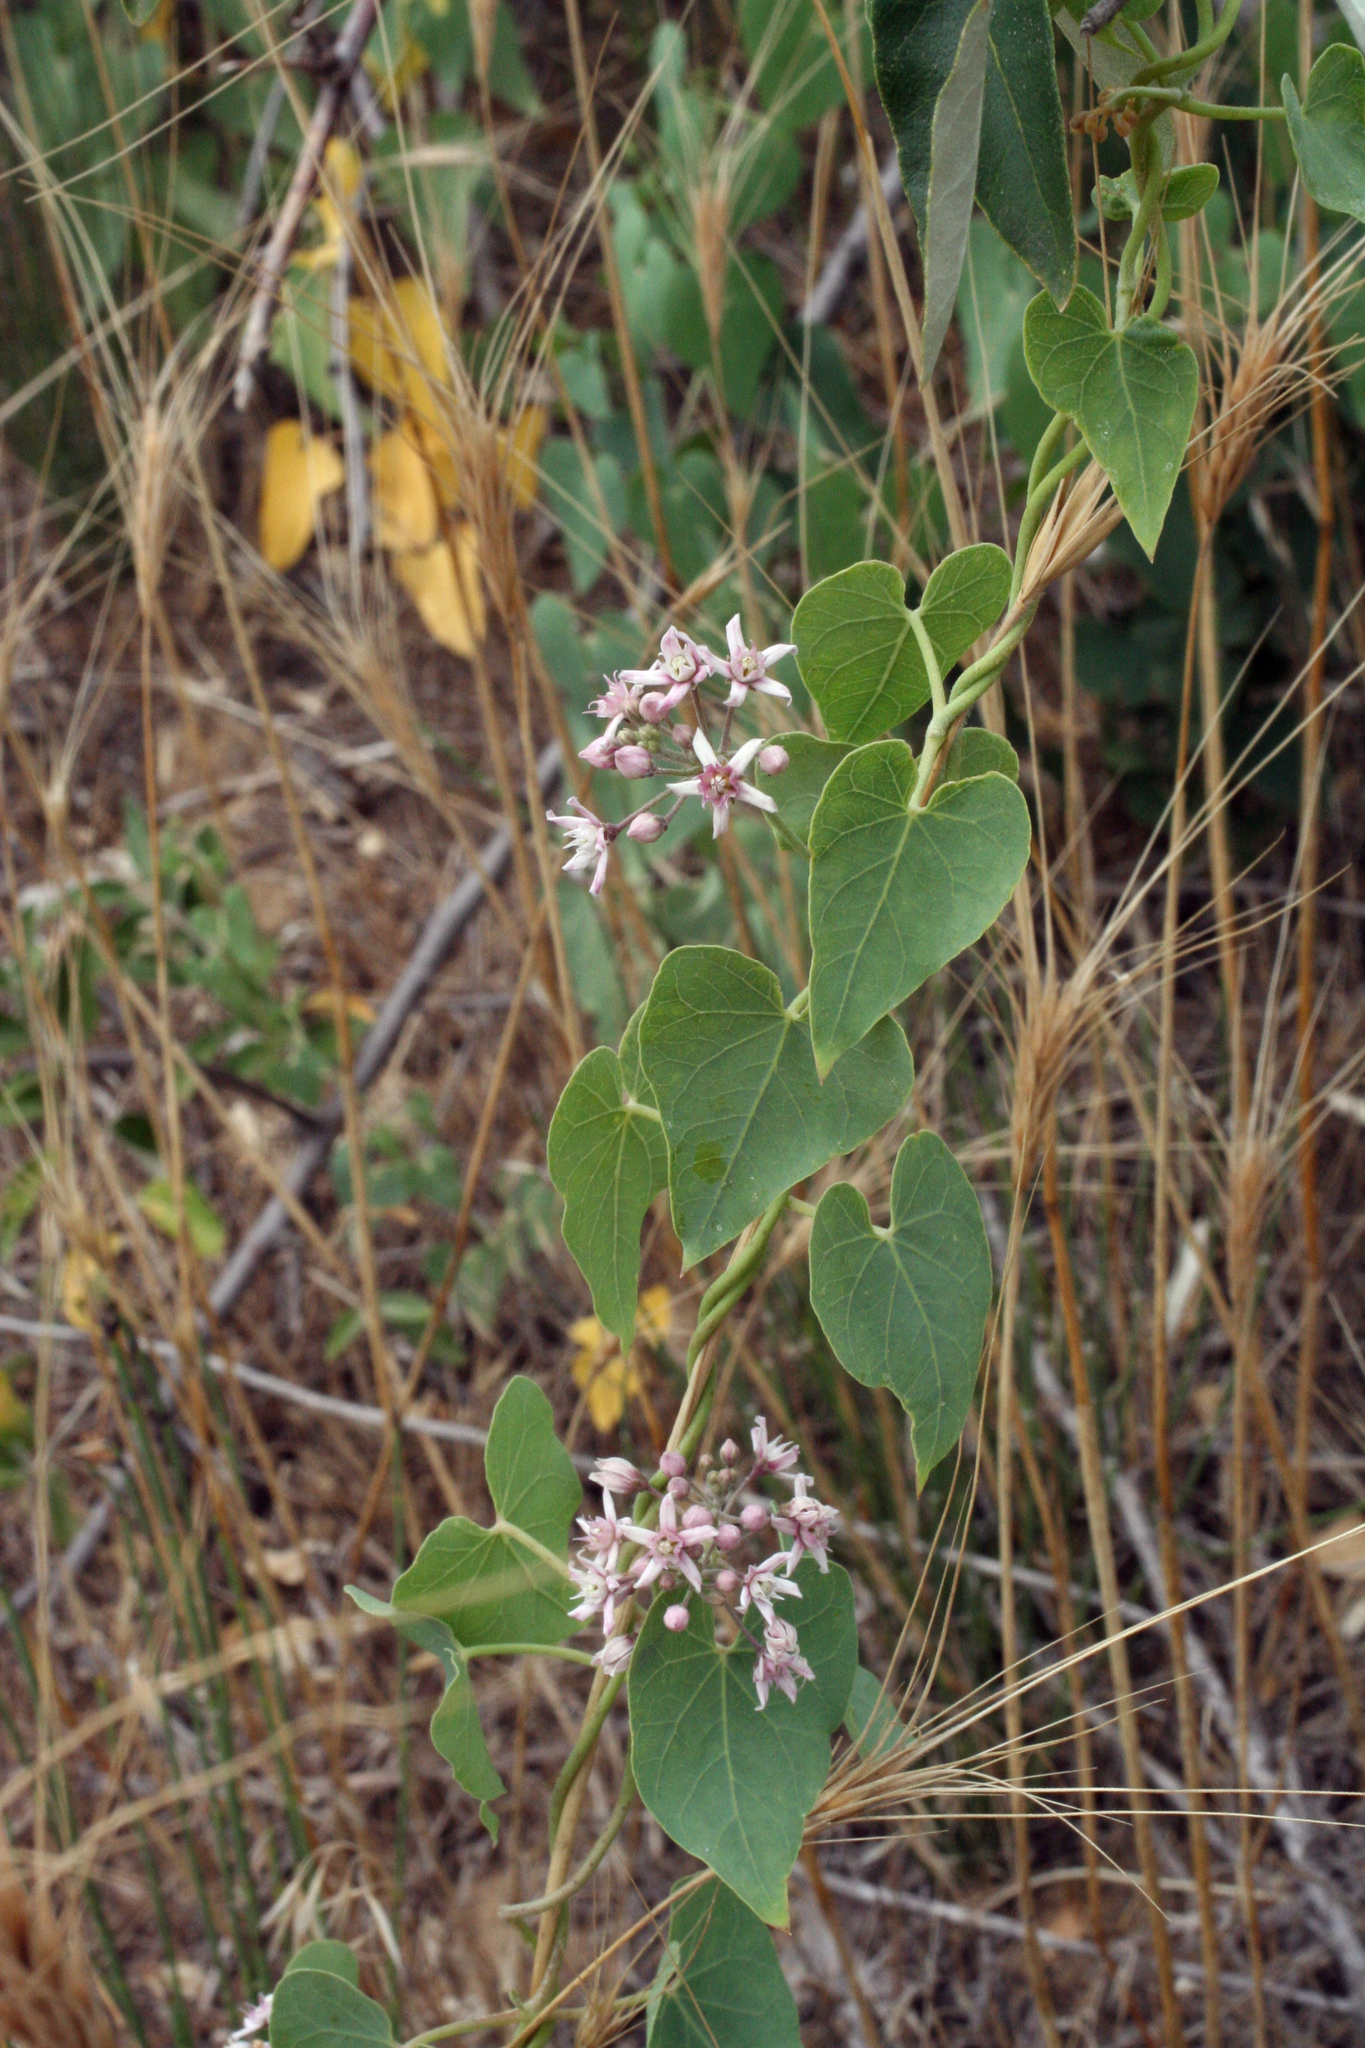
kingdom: Plantae
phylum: Tracheophyta
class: Magnoliopsida
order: Gentianales
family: Apocynaceae
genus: Cynanchum
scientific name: Cynanchum acutum
